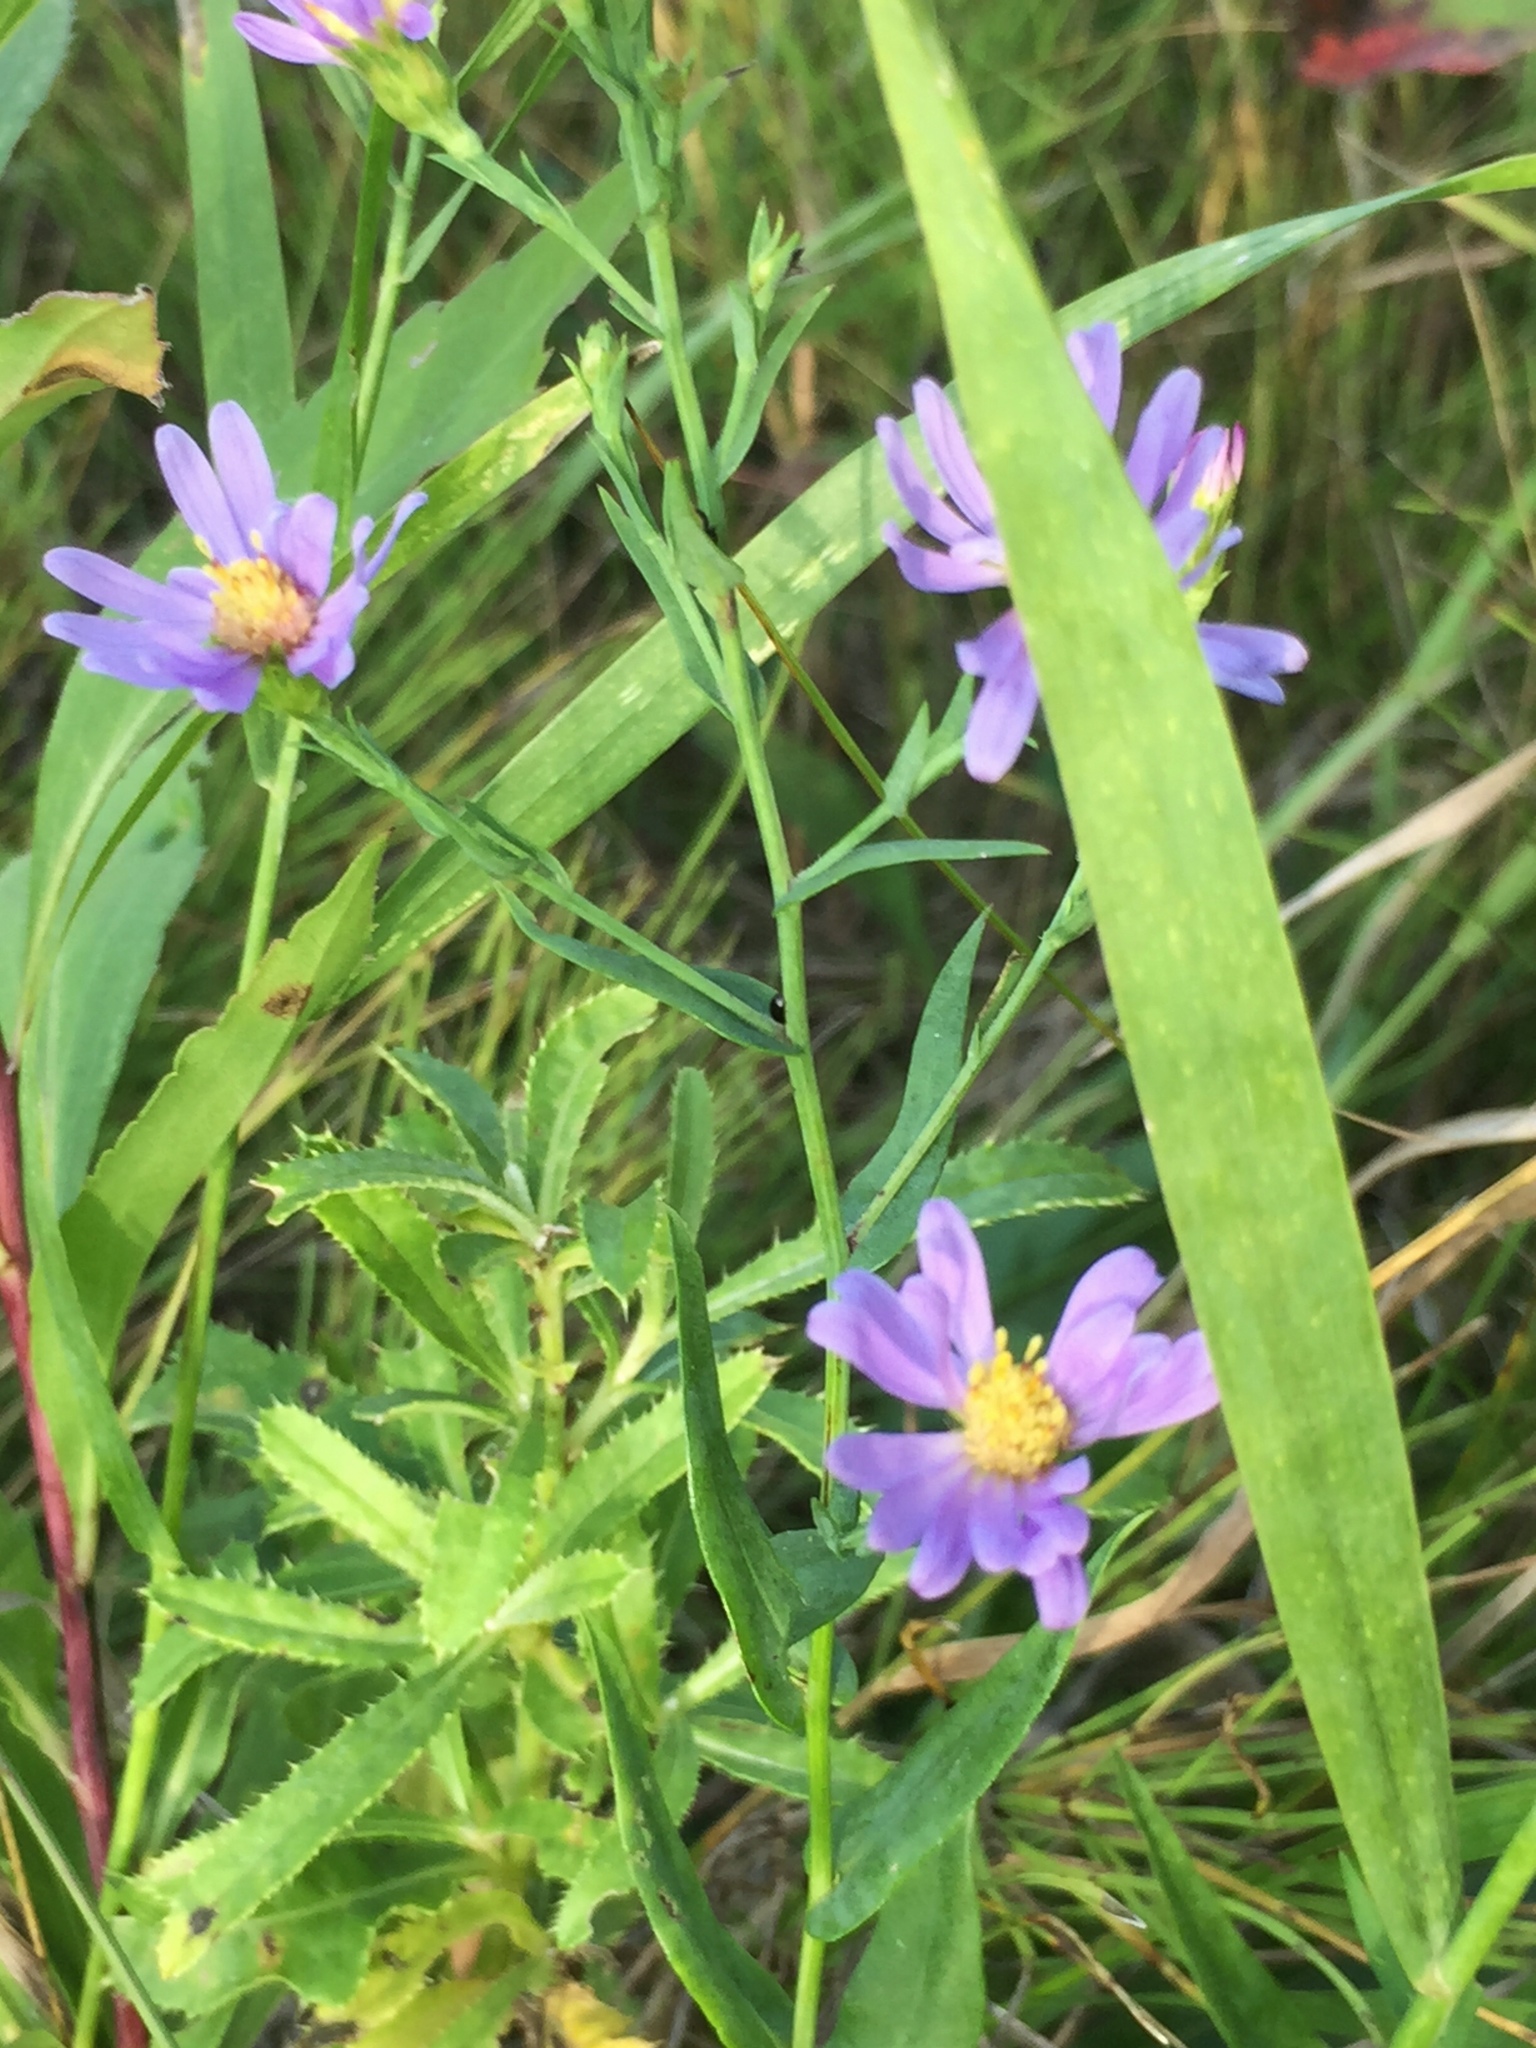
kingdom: Plantae
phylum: Tracheophyta
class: Magnoliopsida
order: Asterales
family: Asteraceae
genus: Symphyotrichum
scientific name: Symphyotrichum laeve
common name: Glaucous aster
